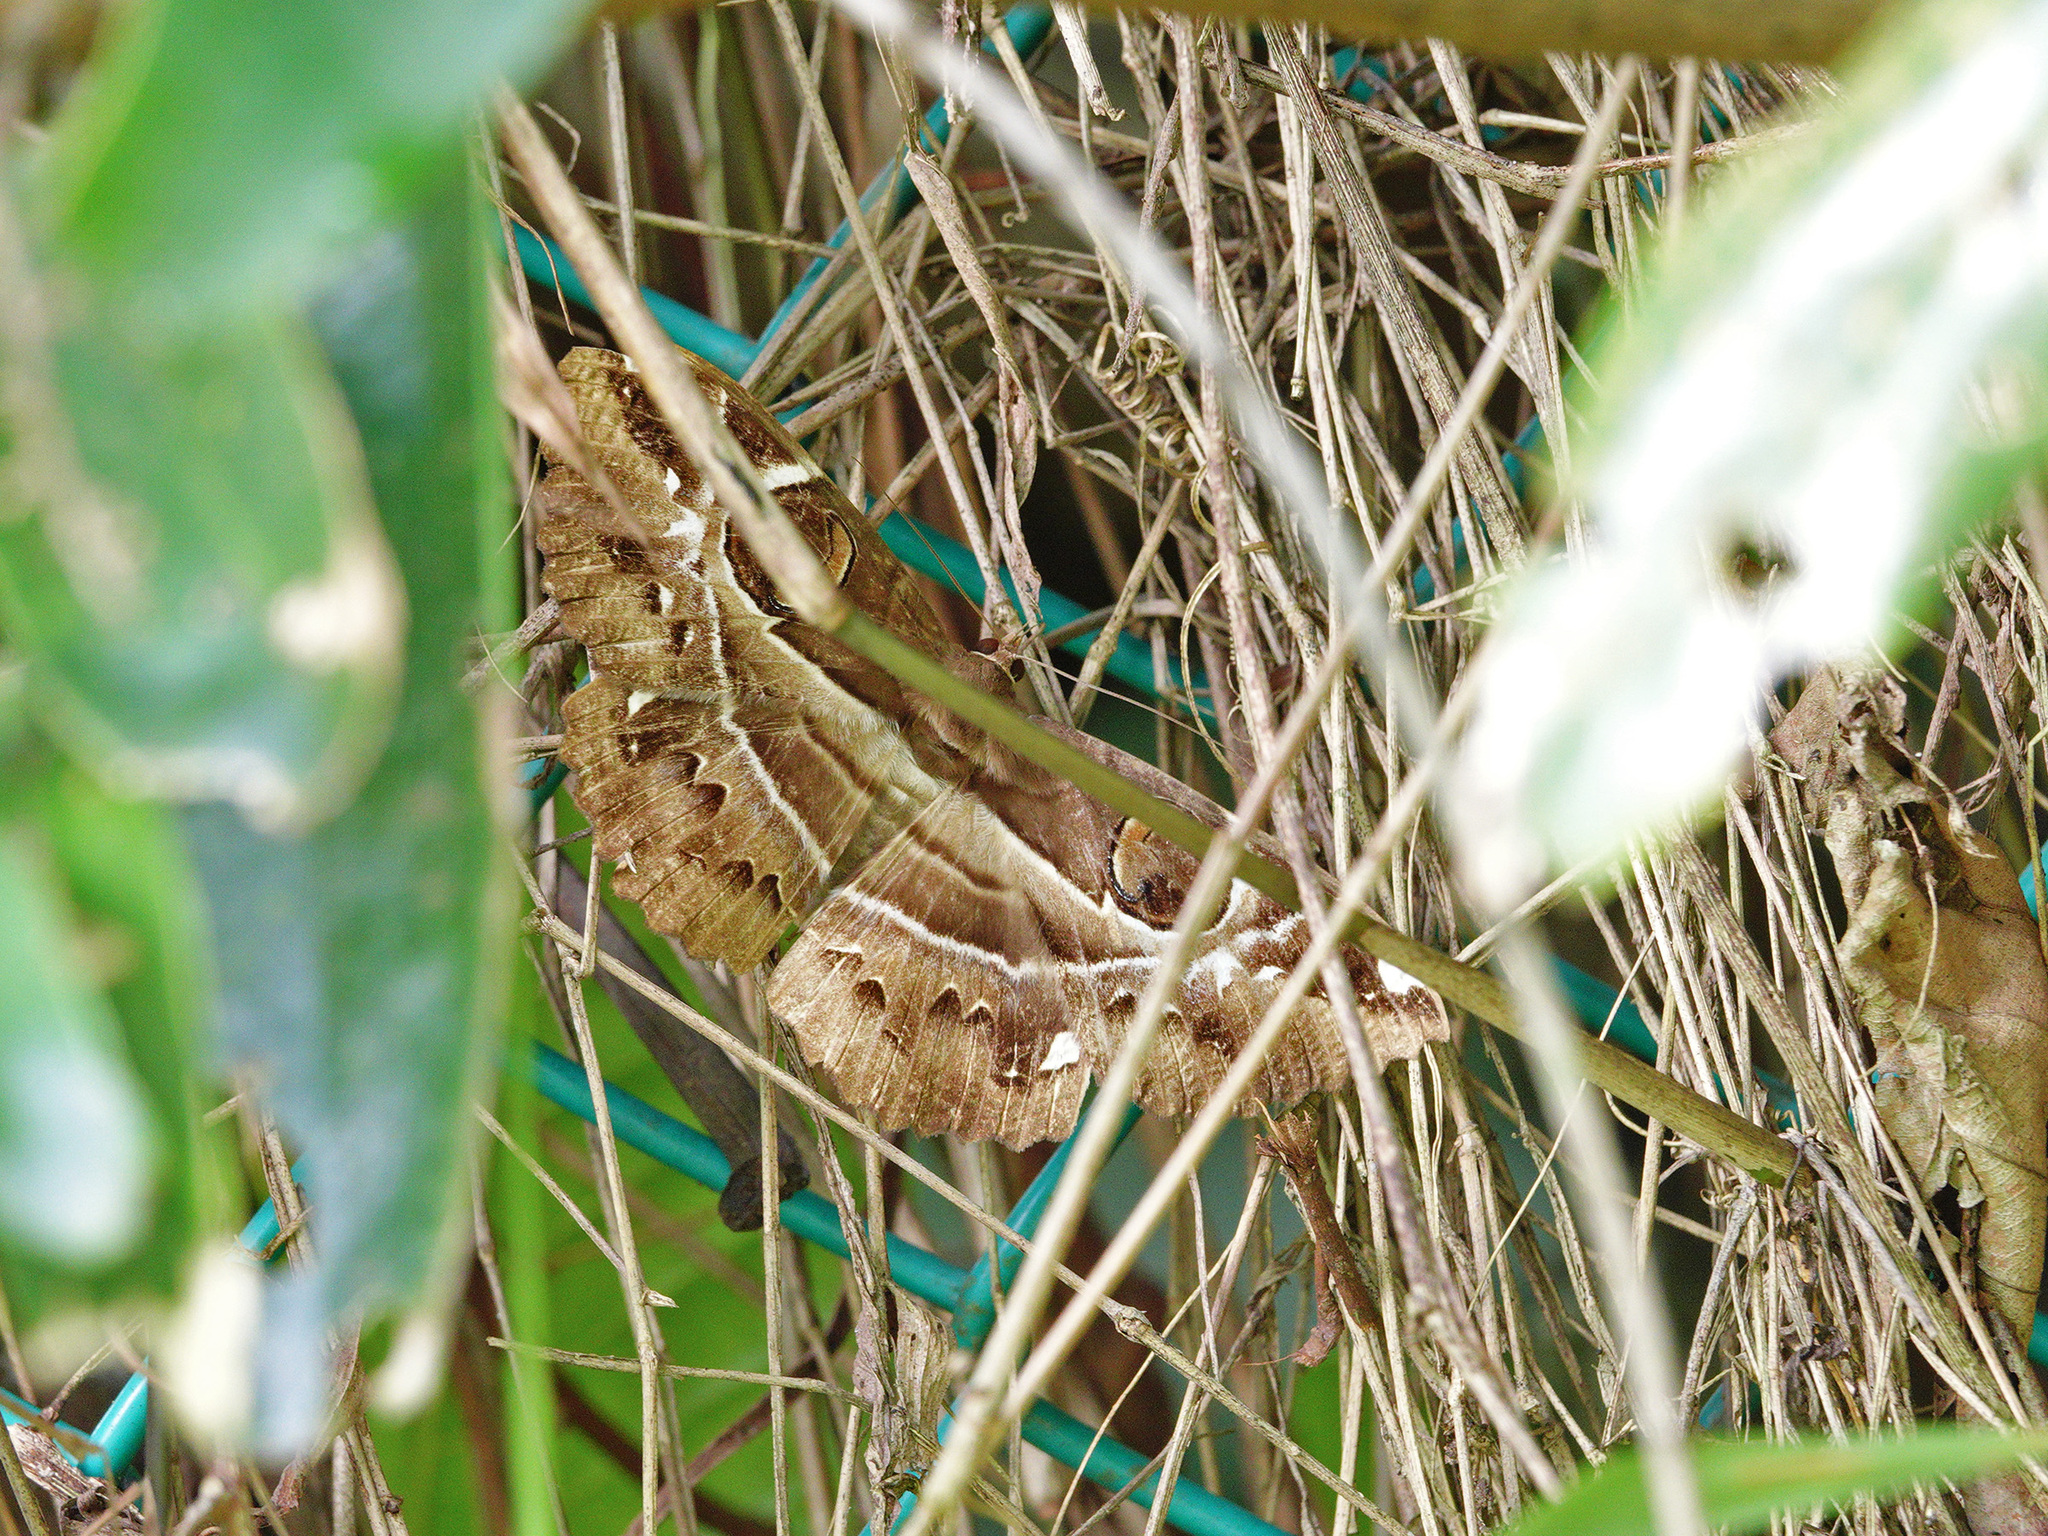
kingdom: Animalia
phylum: Arthropoda
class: Insecta
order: Lepidoptera
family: Erebidae
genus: Erebus
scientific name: Erebus ephesperis
